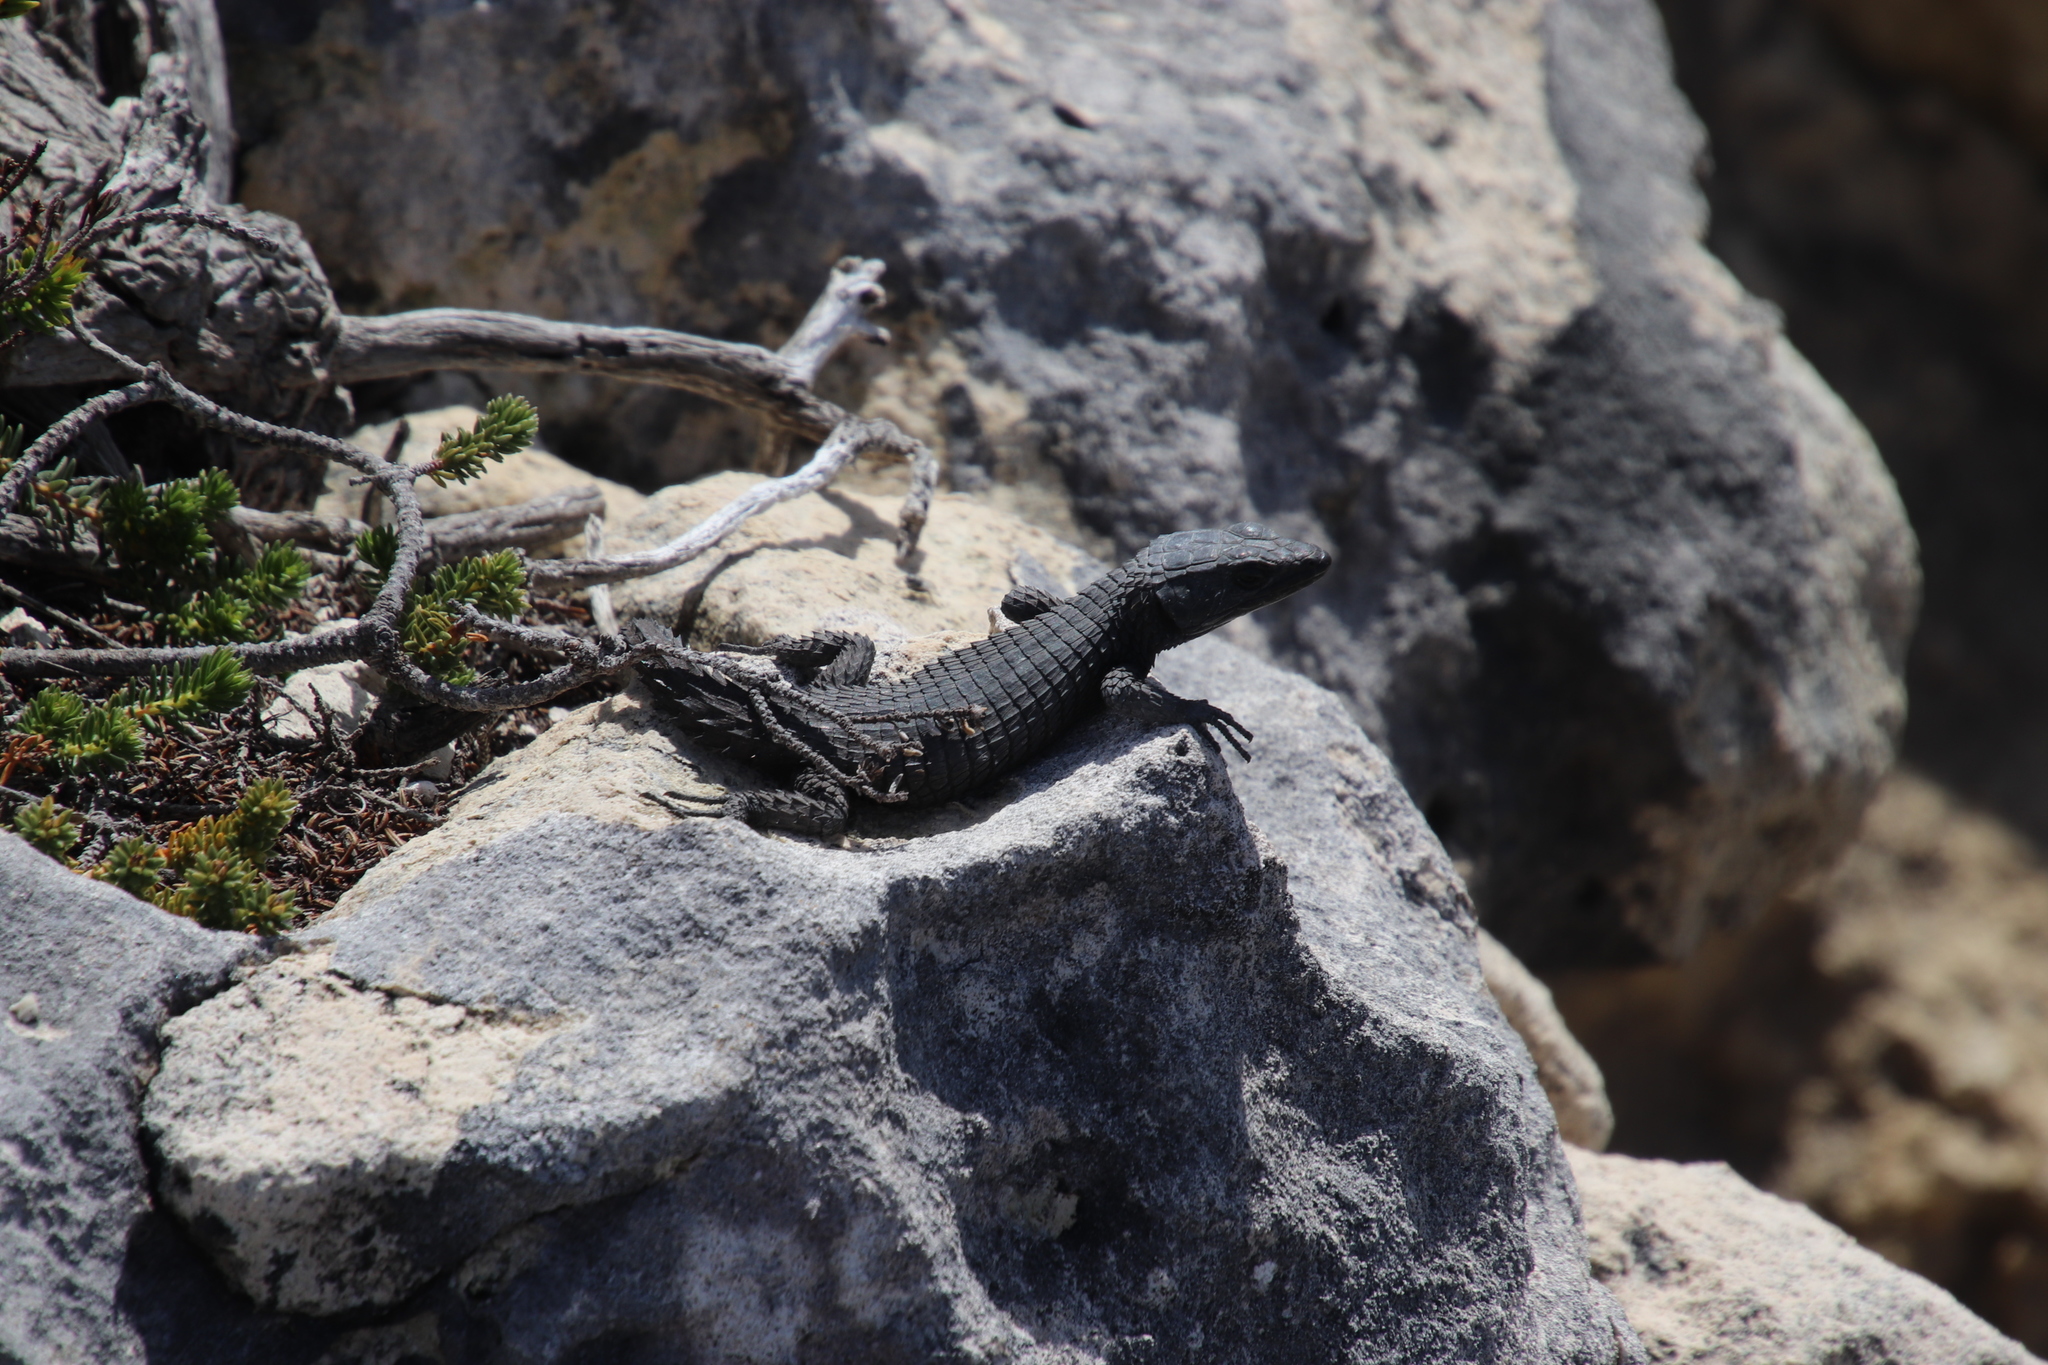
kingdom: Animalia
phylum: Chordata
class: Squamata
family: Cordylidae
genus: Cordylus
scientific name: Cordylus niger
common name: Black girdled lizard
